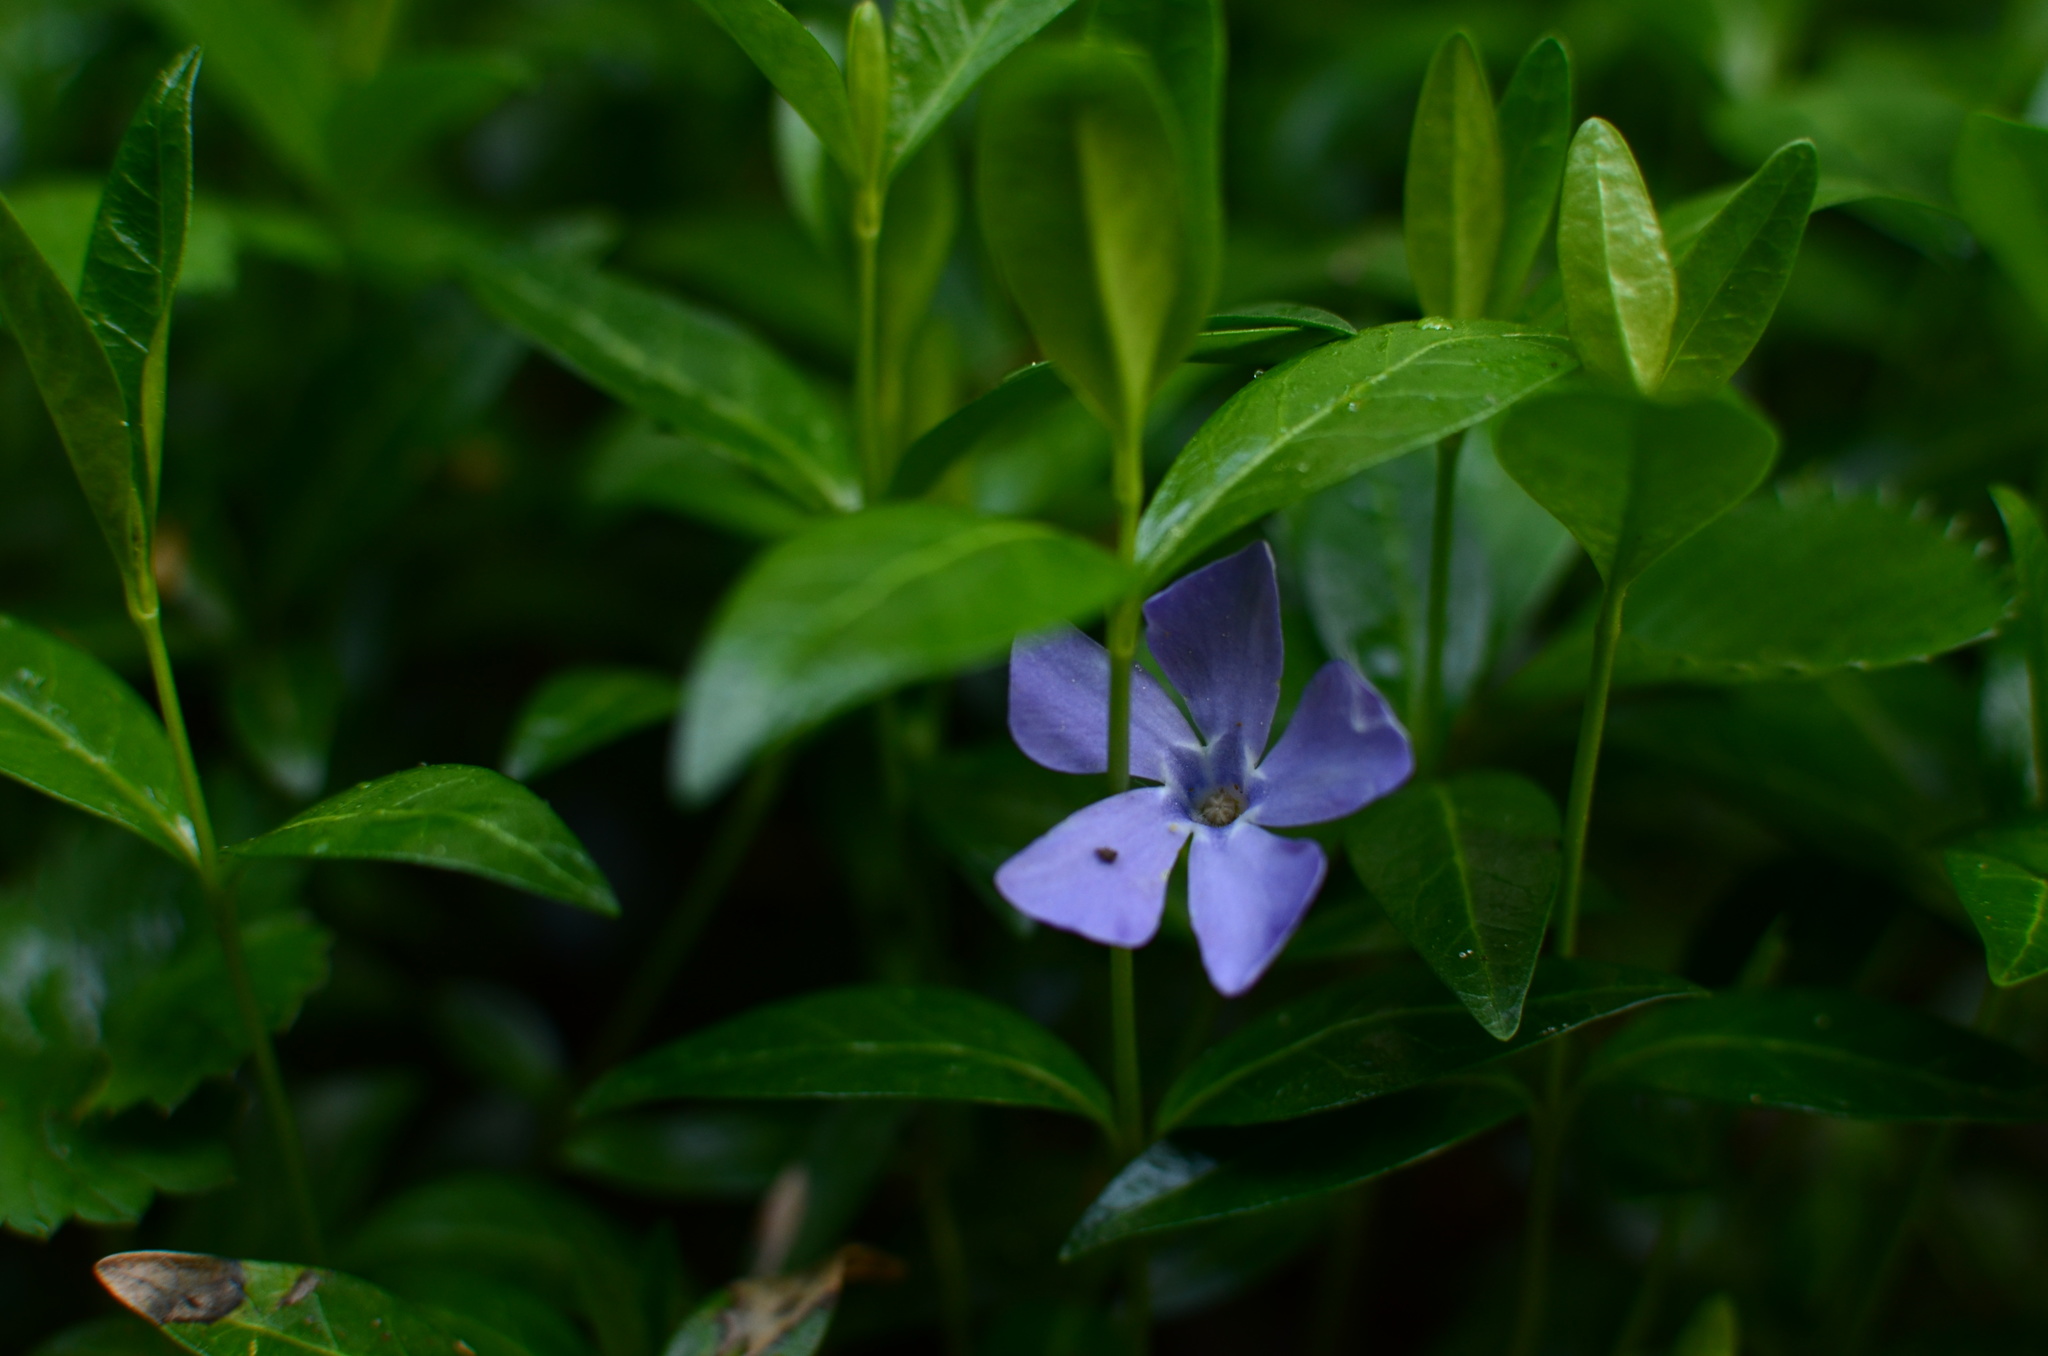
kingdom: Plantae
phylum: Tracheophyta
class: Magnoliopsida
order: Gentianales
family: Apocynaceae
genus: Vinca
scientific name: Vinca minor
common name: Lesser periwinkle
